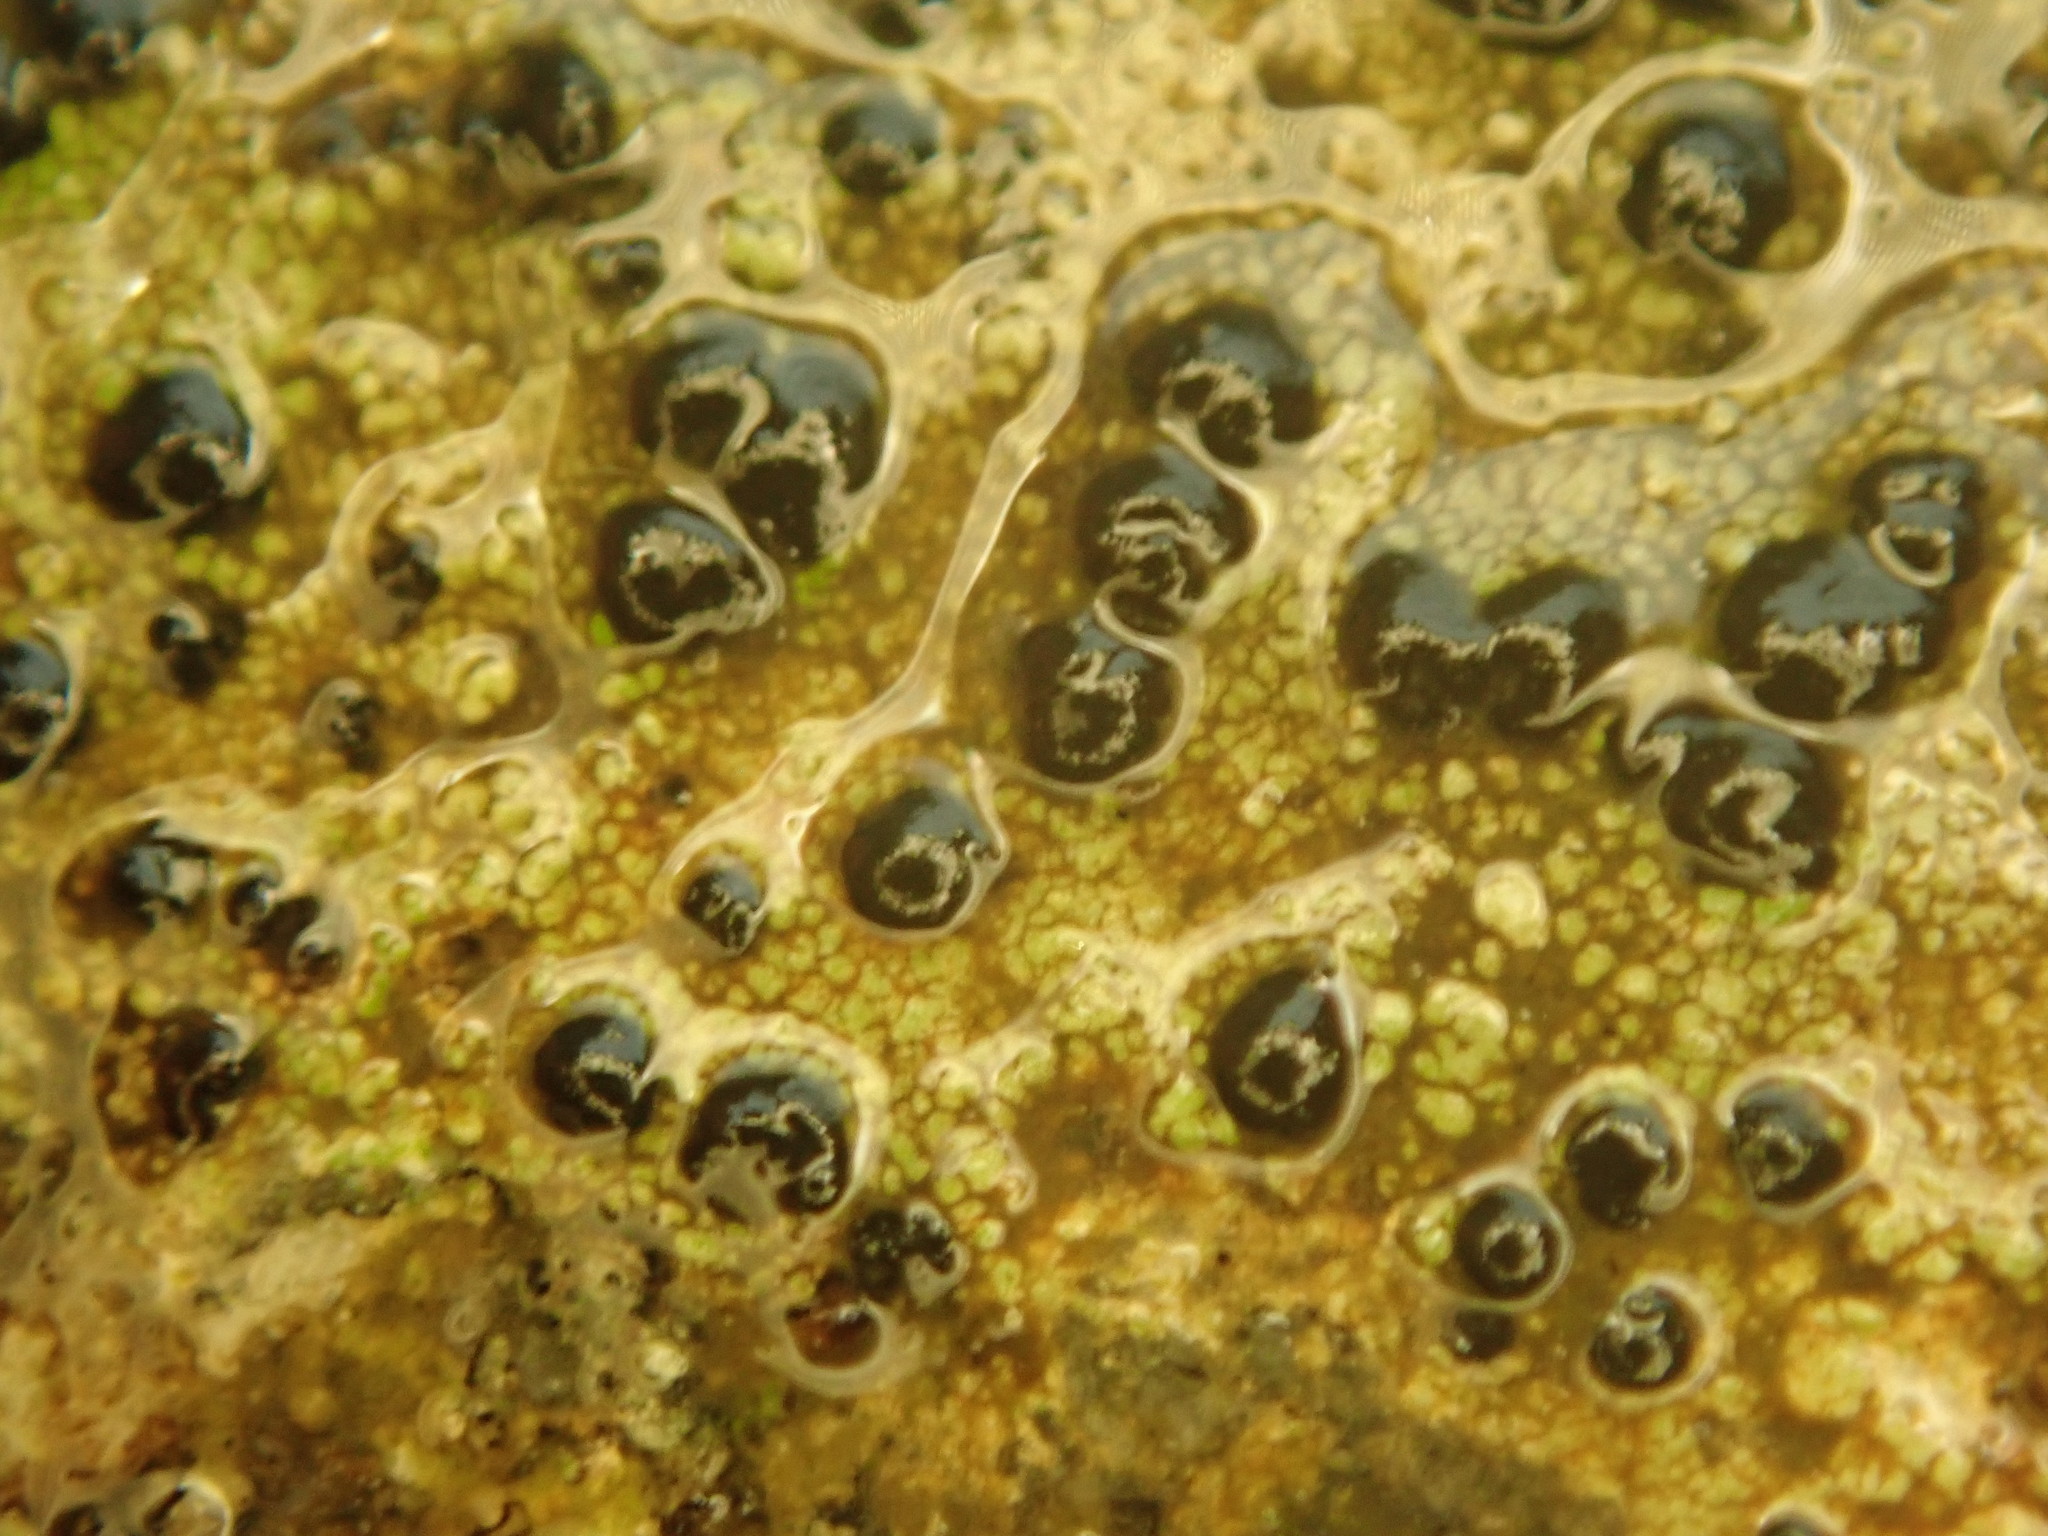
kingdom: Fungi
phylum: Ascomycota
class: Lecanoromycetes
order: Lecideales
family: Lecideaceae
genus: Porpidia
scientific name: Porpidia macrocarpa
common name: Common boulder lichen
